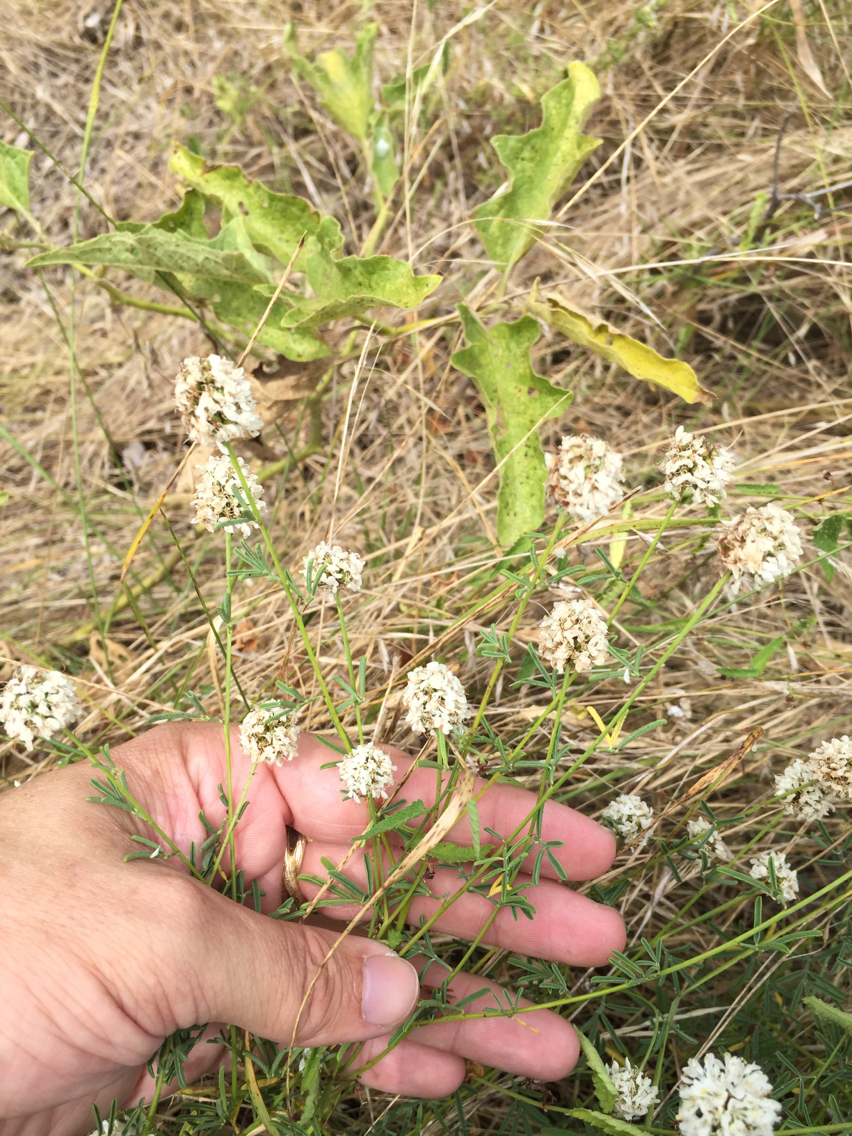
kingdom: Plantae
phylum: Tracheophyta
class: Magnoliopsida
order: Fabales
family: Fabaceae
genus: Dalea
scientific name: Dalea multiflora
